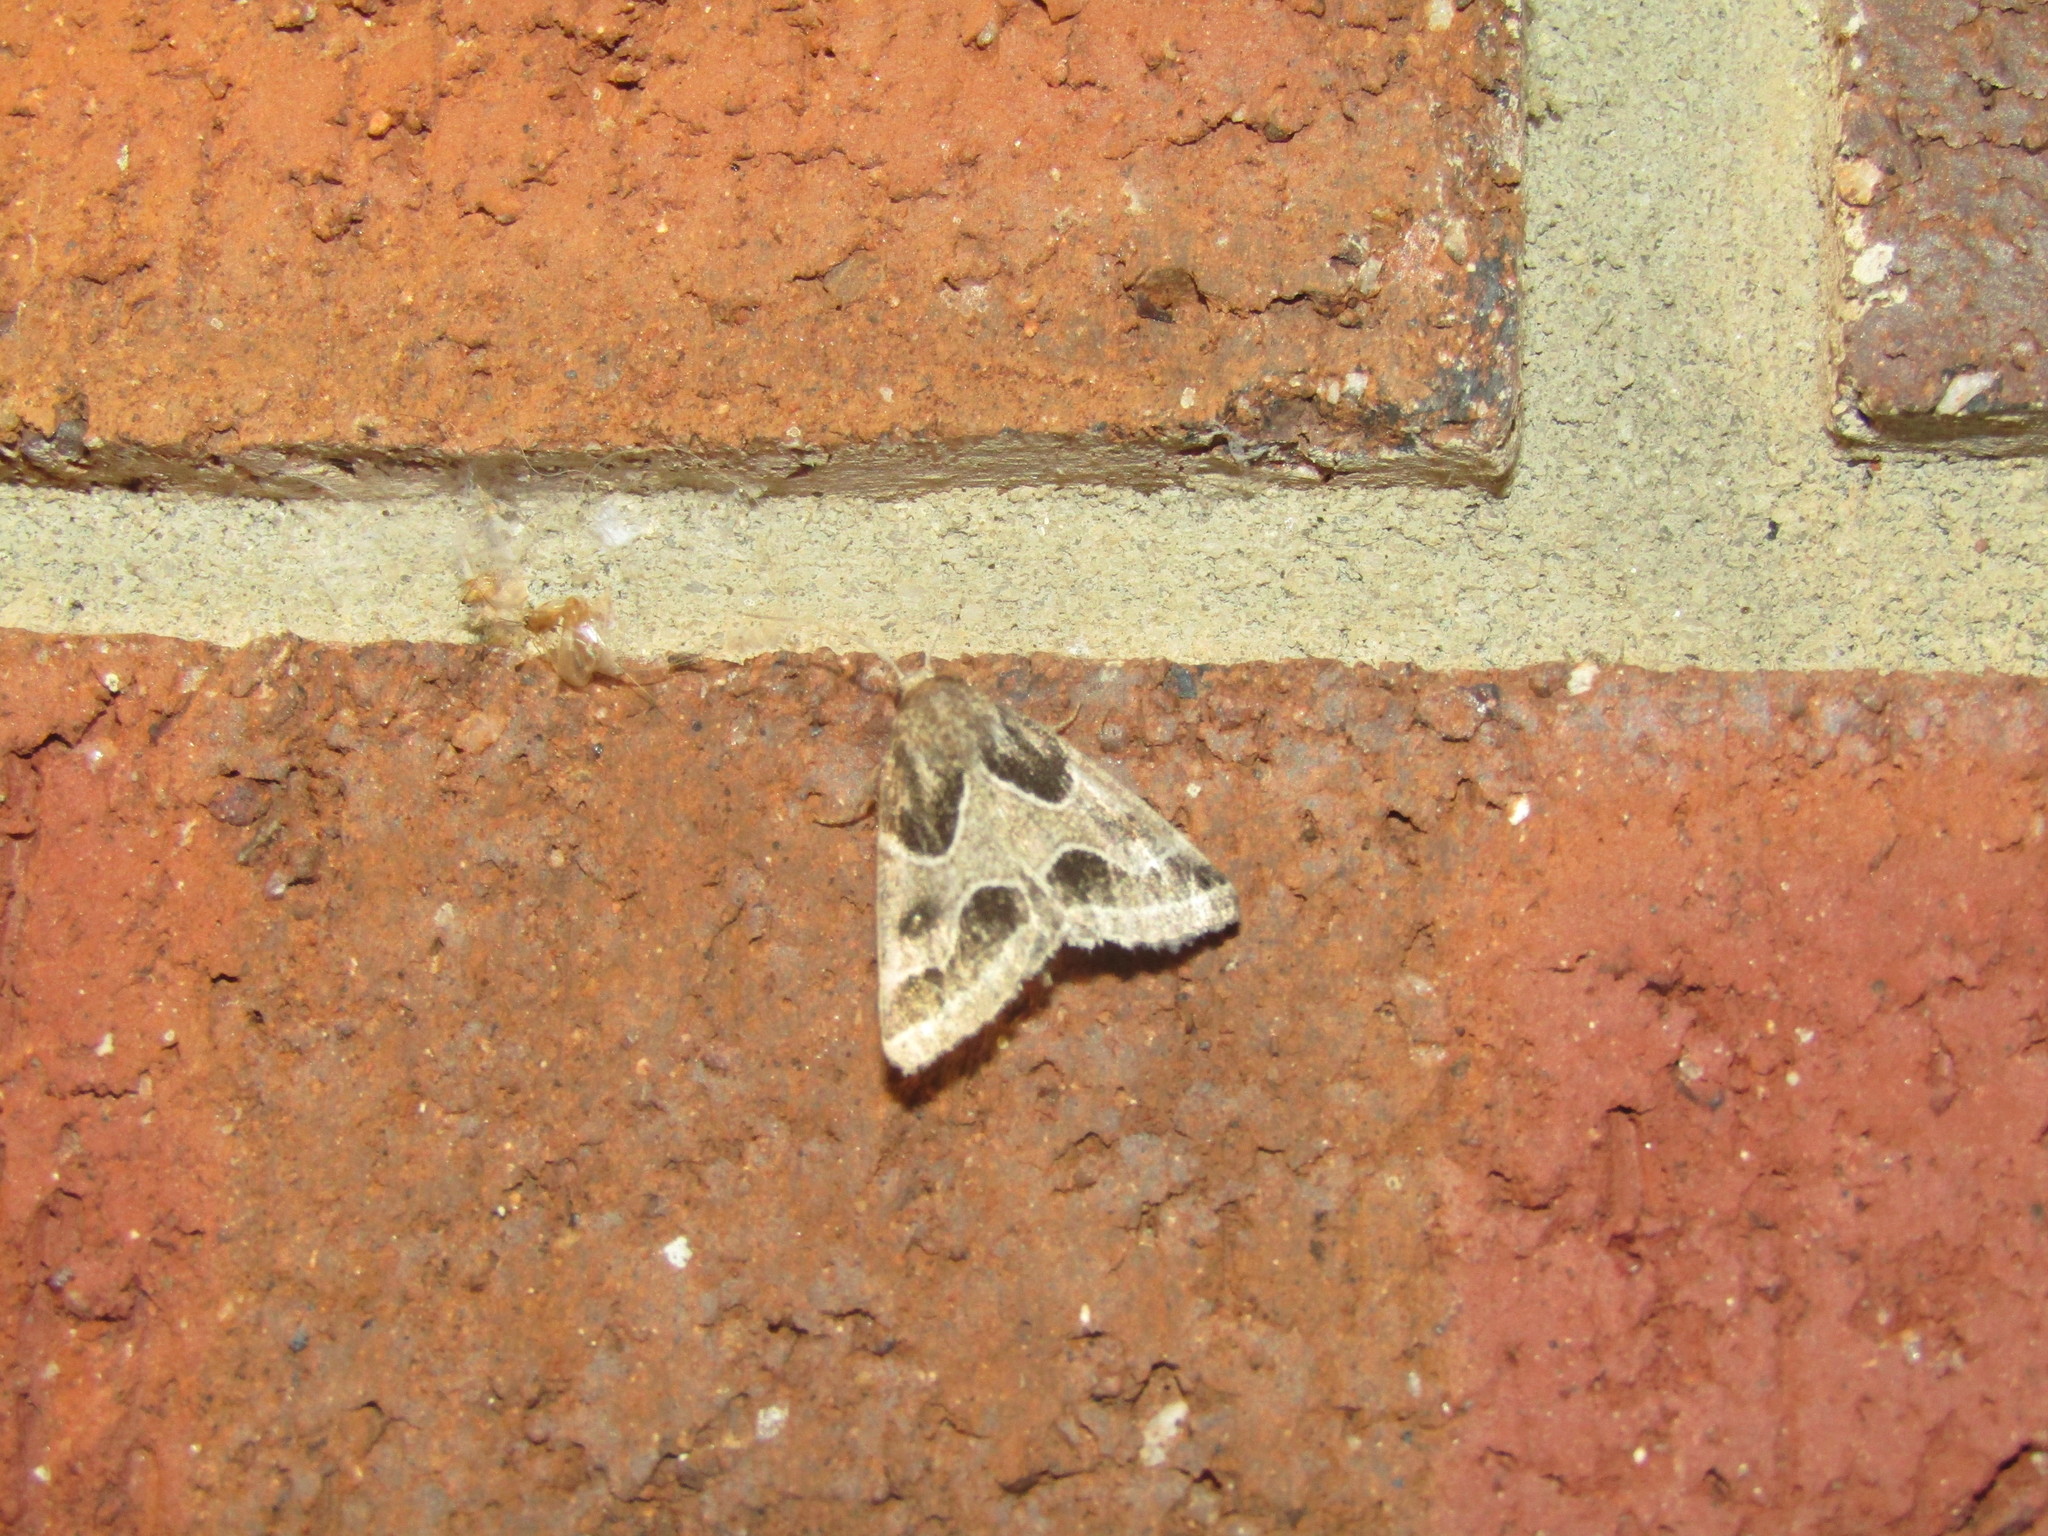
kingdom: Animalia
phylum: Arthropoda
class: Insecta
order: Lepidoptera
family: Noctuidae
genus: Schinia
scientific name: Schinia rivulosa
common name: Scarce meal-moth
